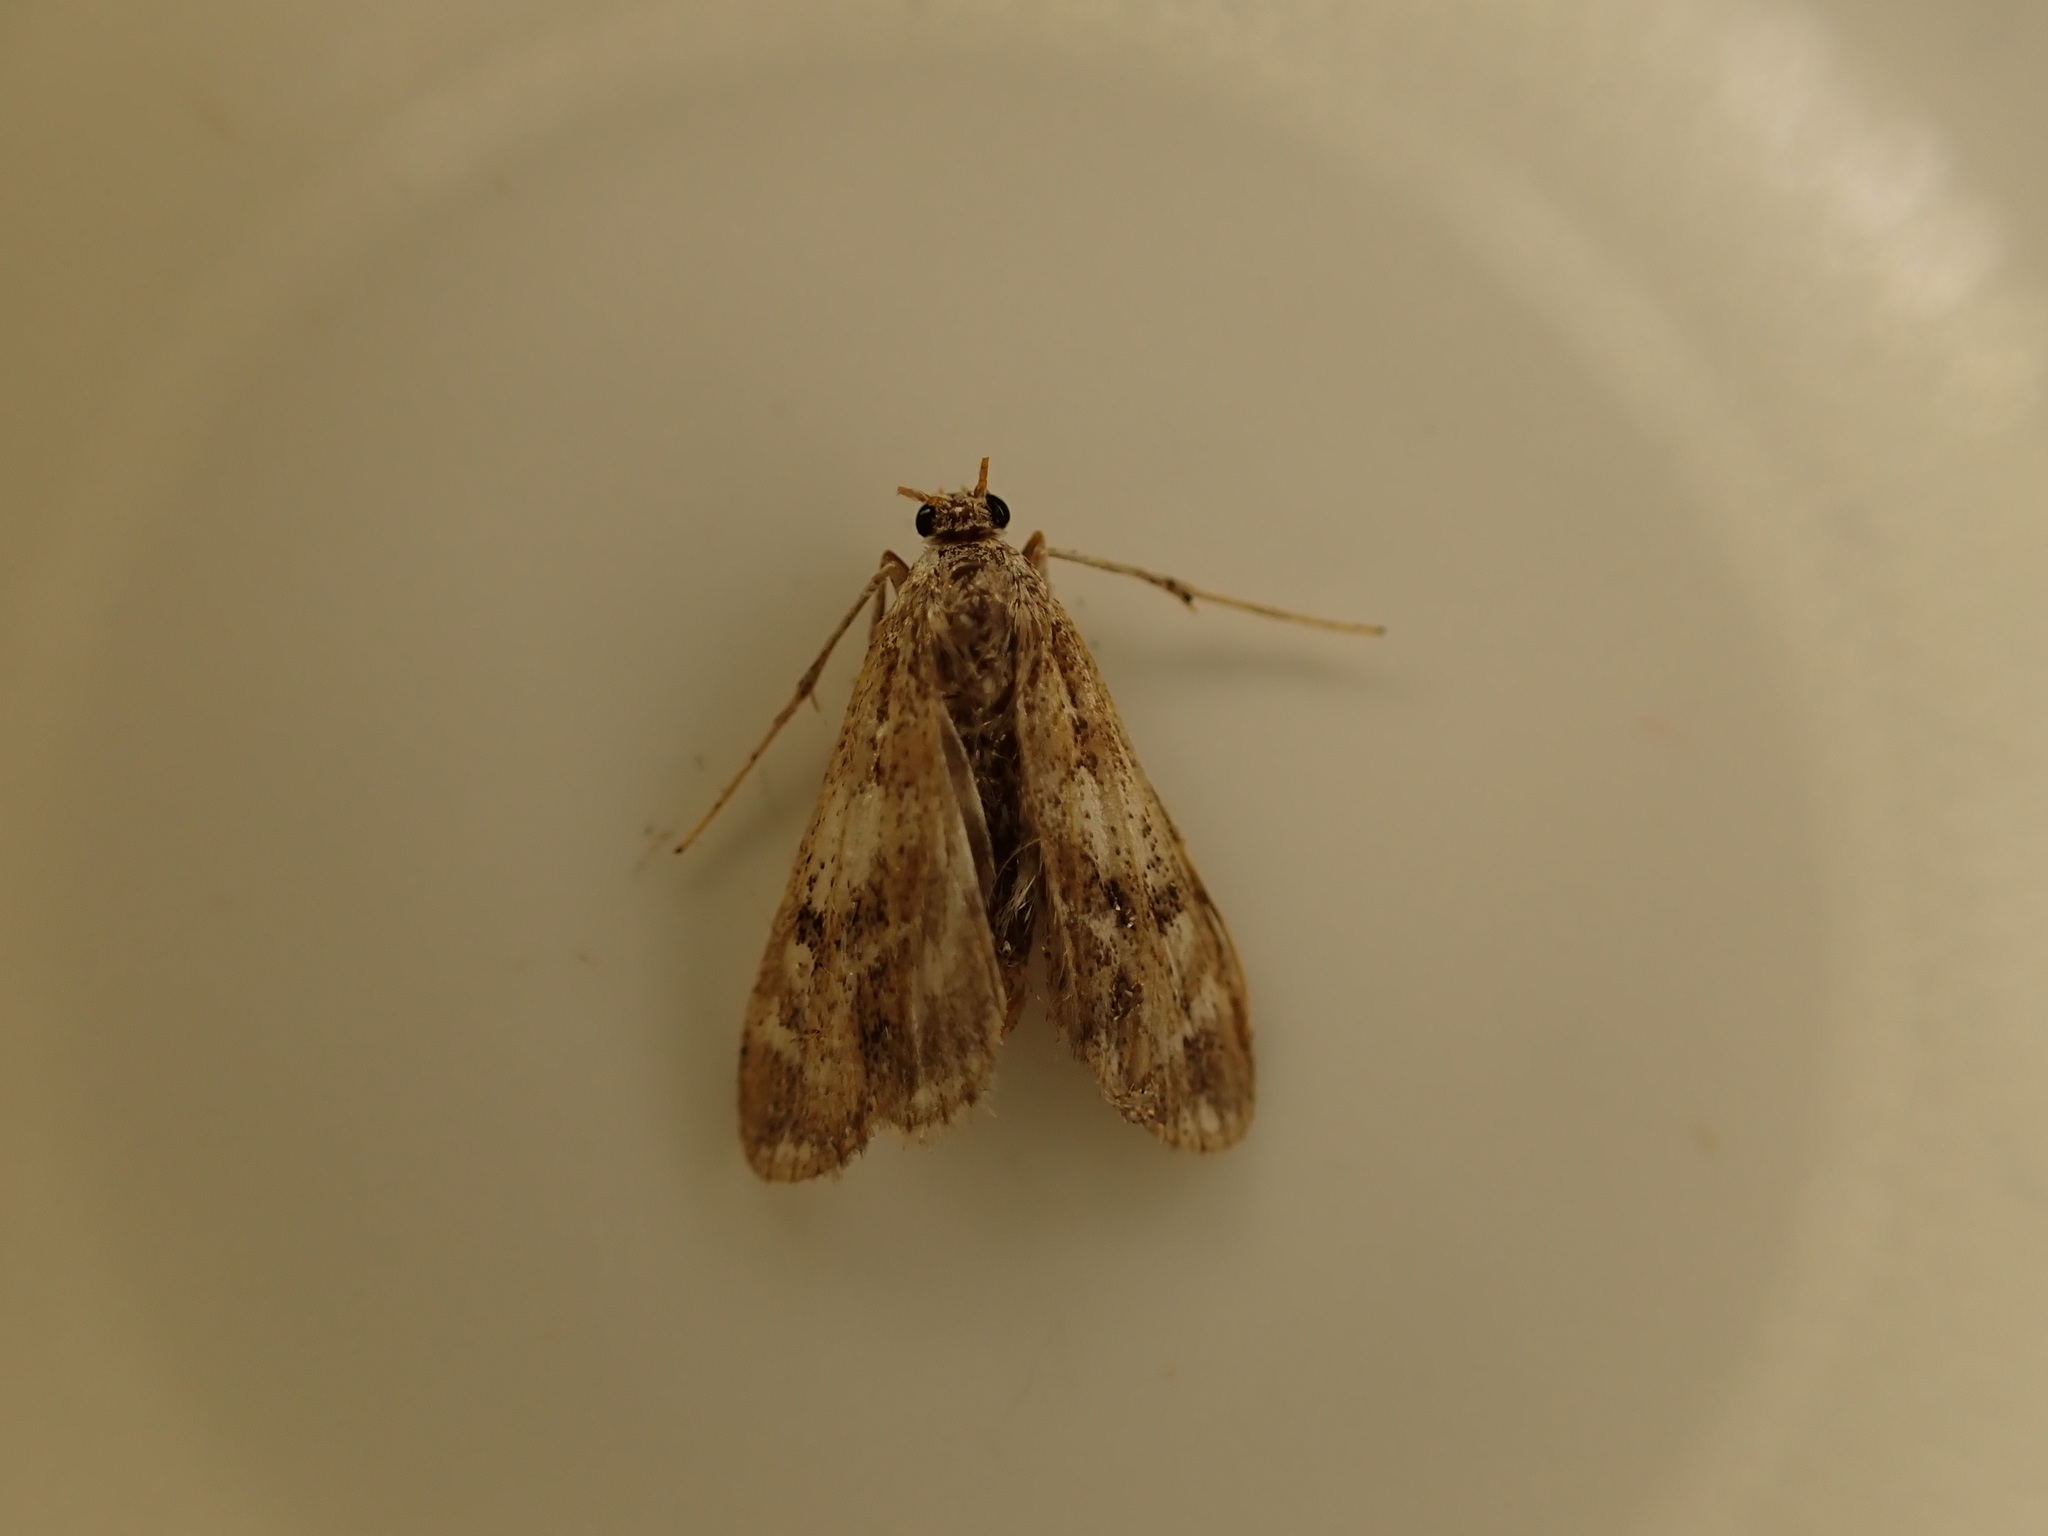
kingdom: Animalia
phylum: Arthropoda
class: Insecta
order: Lepidoptera
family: Crambidae
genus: Hygraula
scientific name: Hygraula nitens
